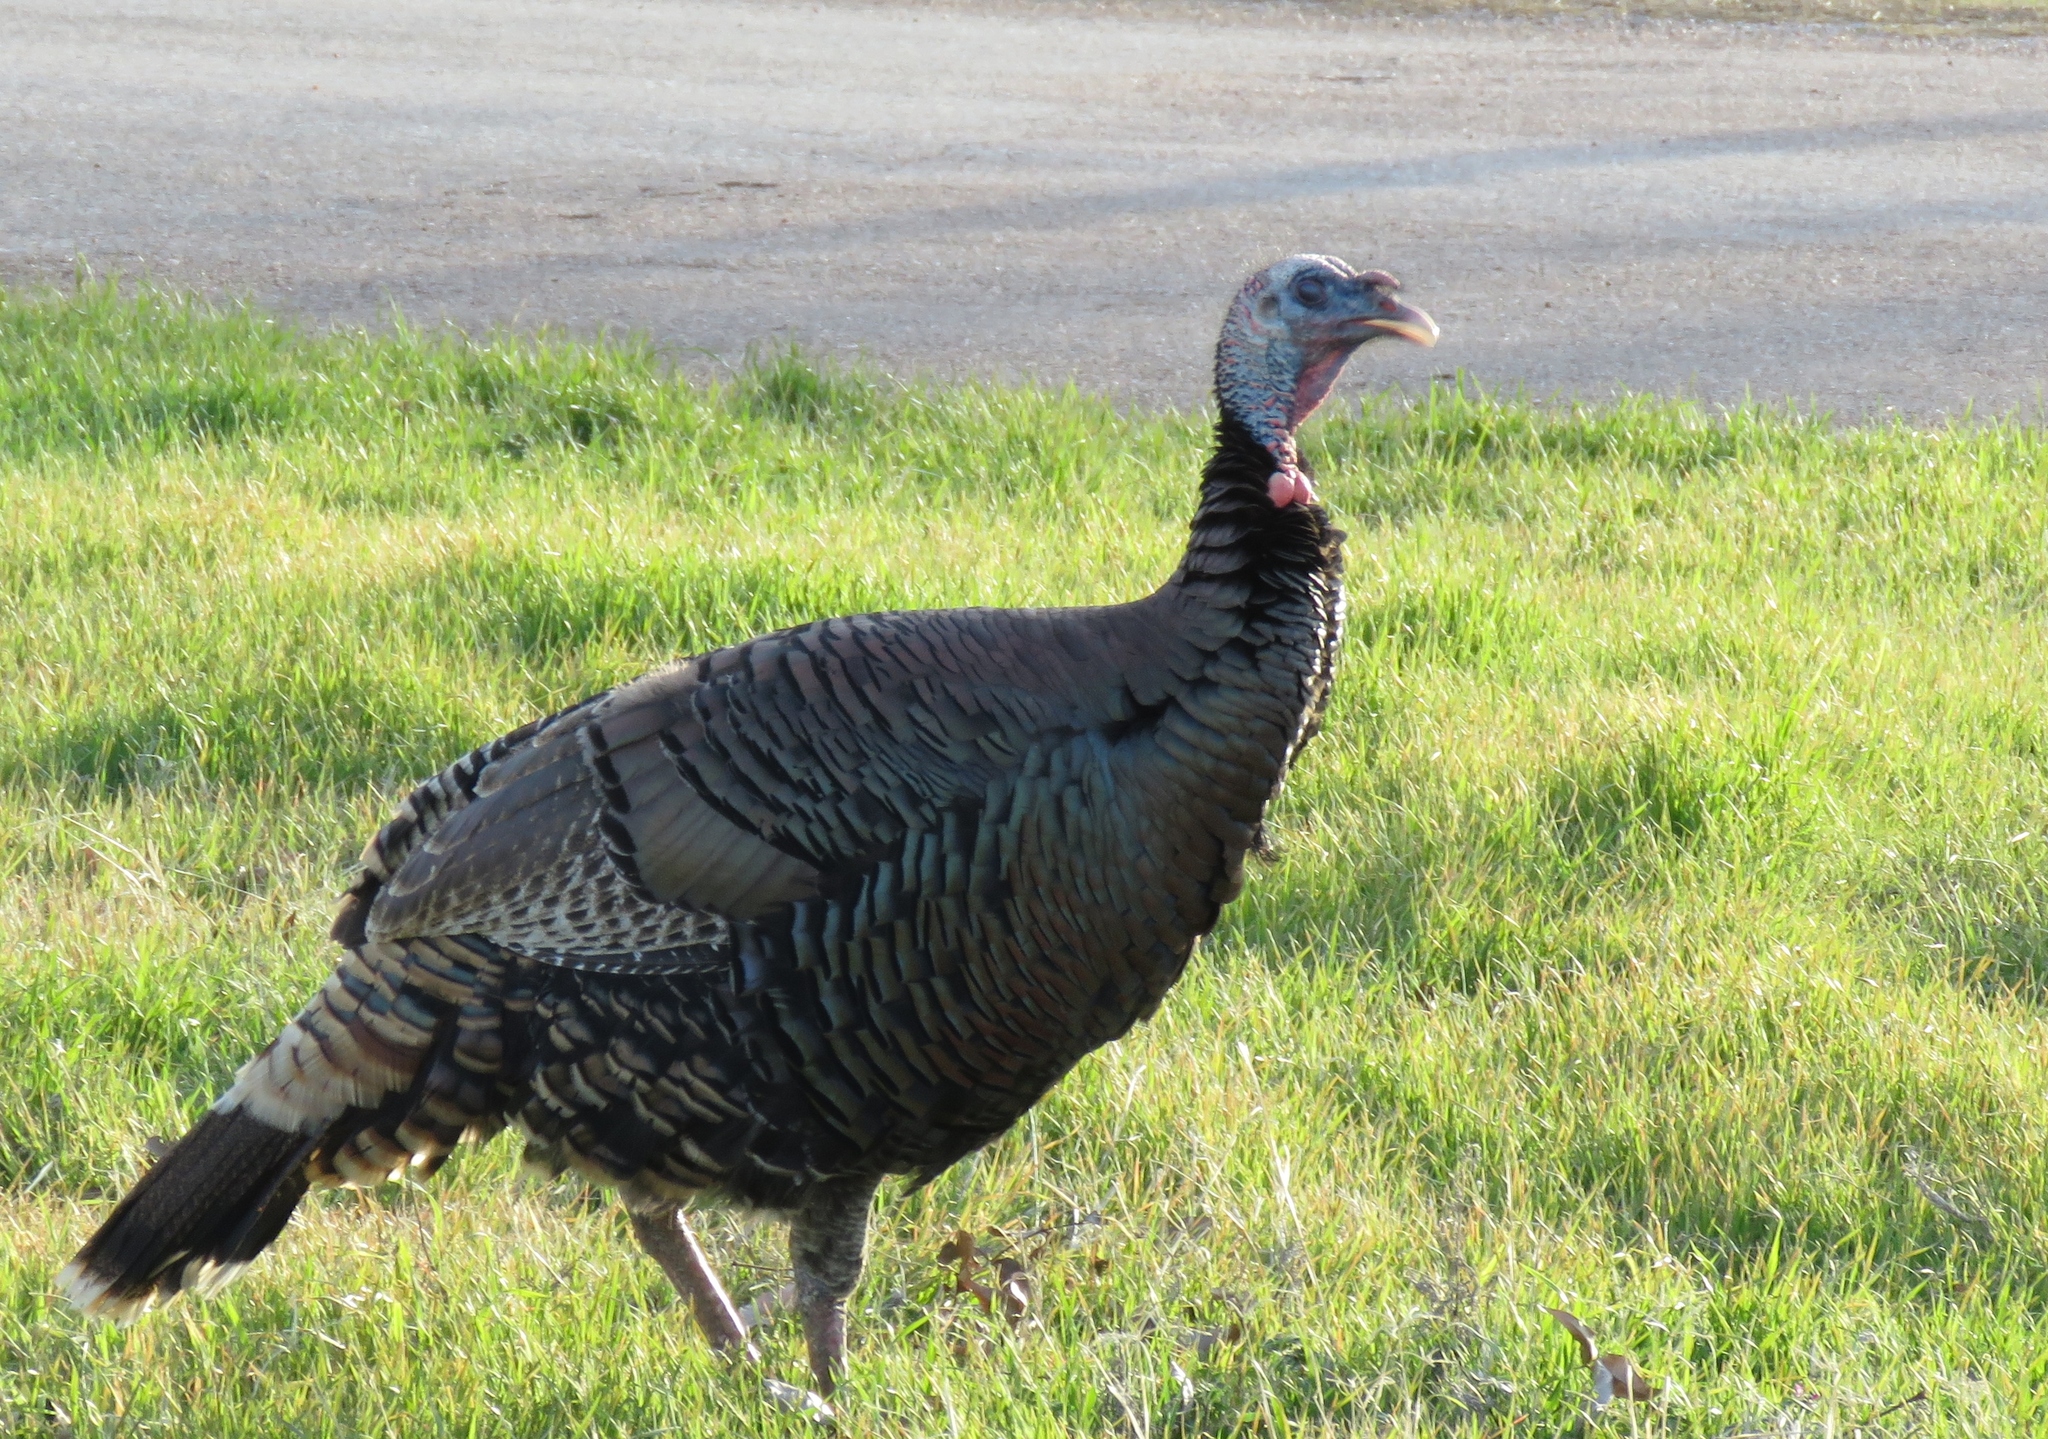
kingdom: Animalia
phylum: Chordata
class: Aves
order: Galliformes
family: Phasianidae
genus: Meleagris
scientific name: Meleagris gallopavo
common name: Wild turkey
